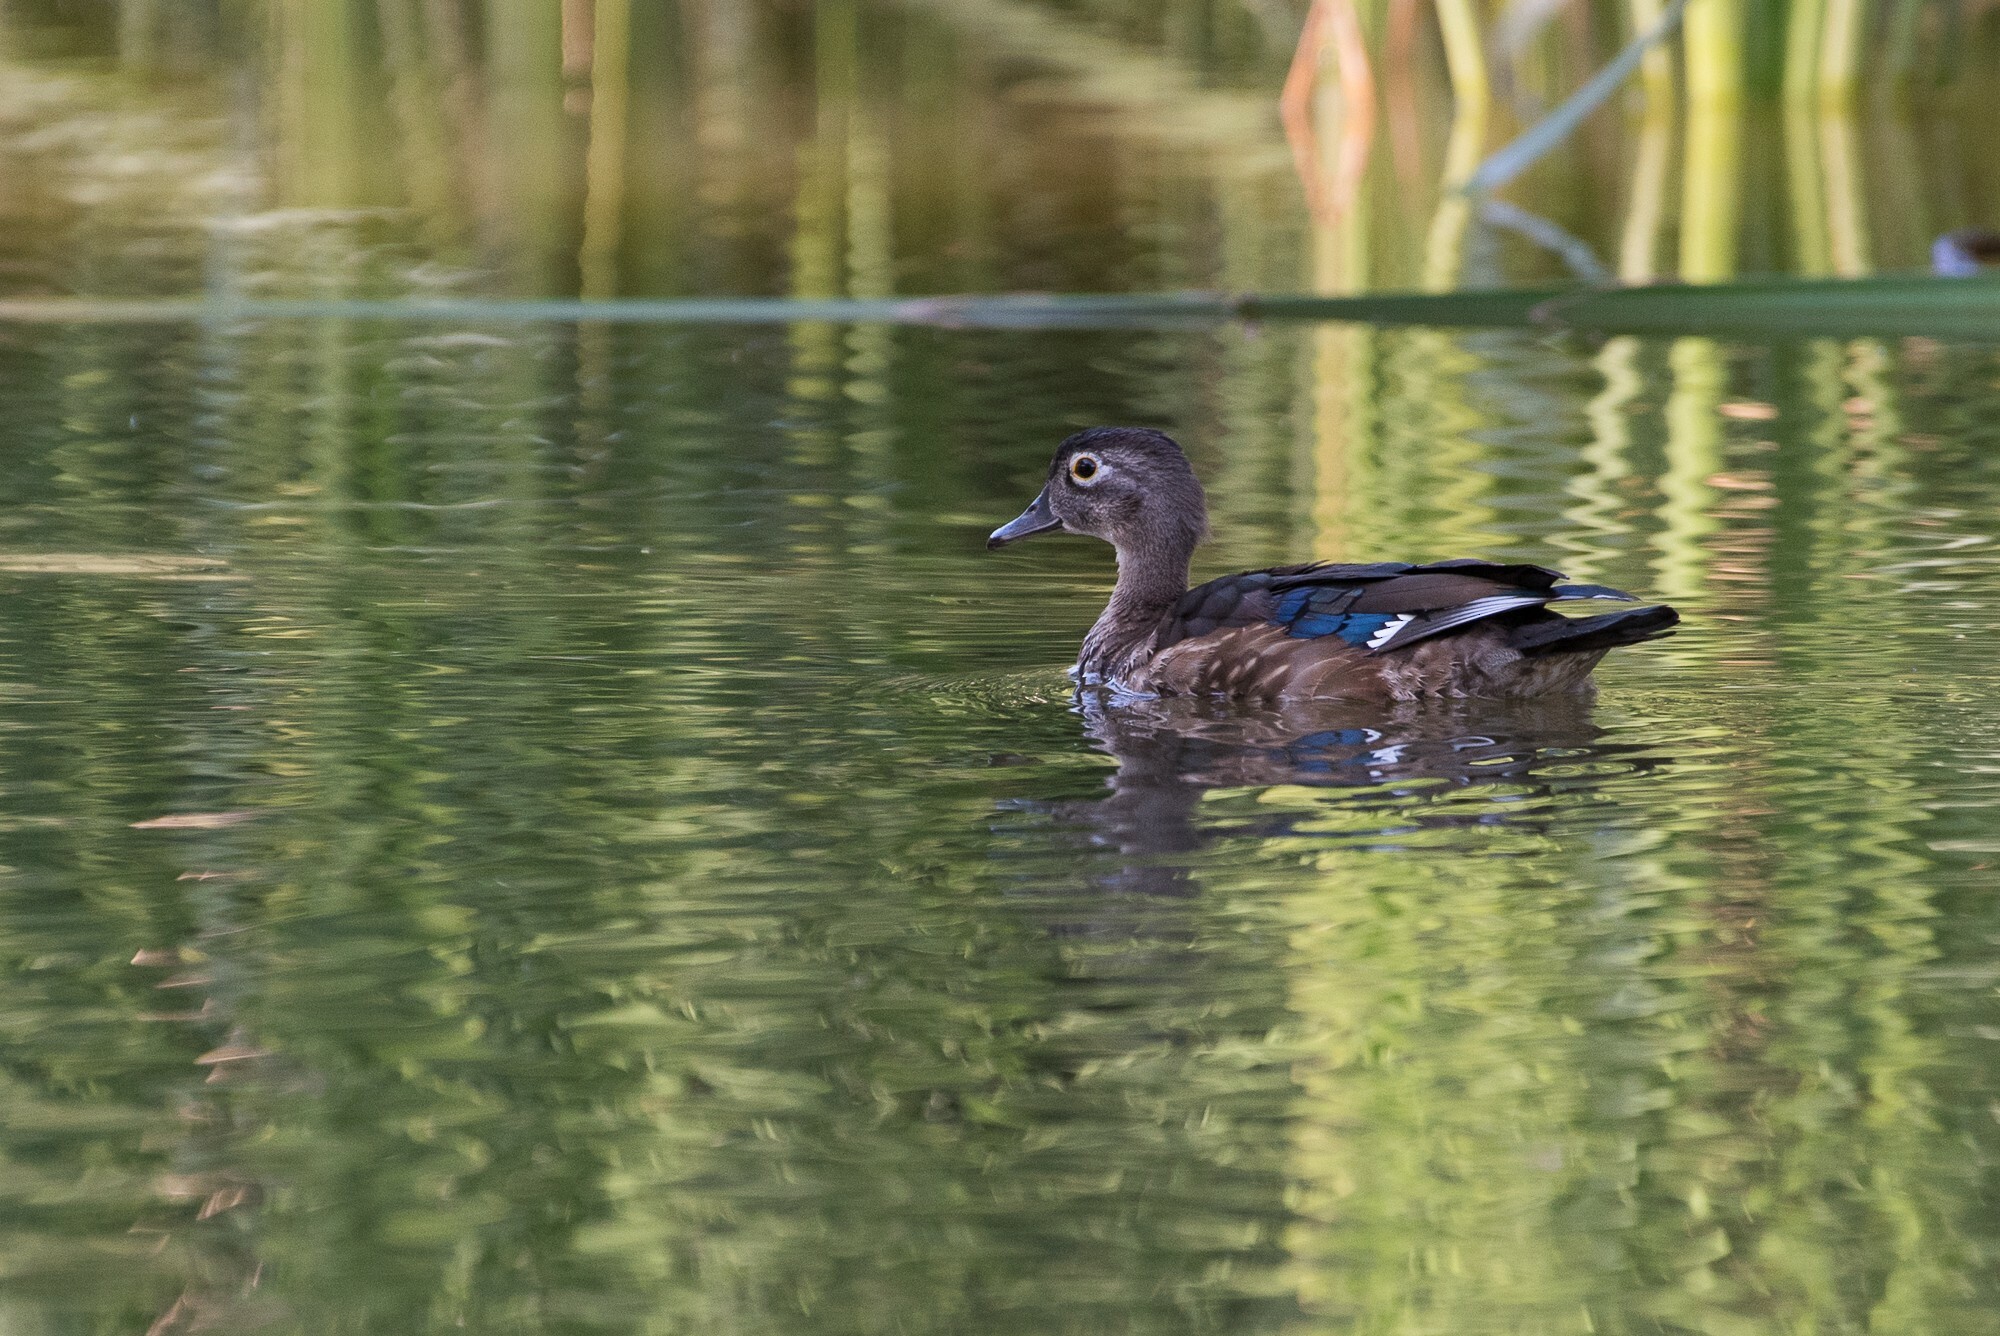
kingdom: Animalia
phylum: Chordata
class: Aves
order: Anseriformes
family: Anatidae
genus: Aix
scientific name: Aix sponsa
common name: Wood duck
